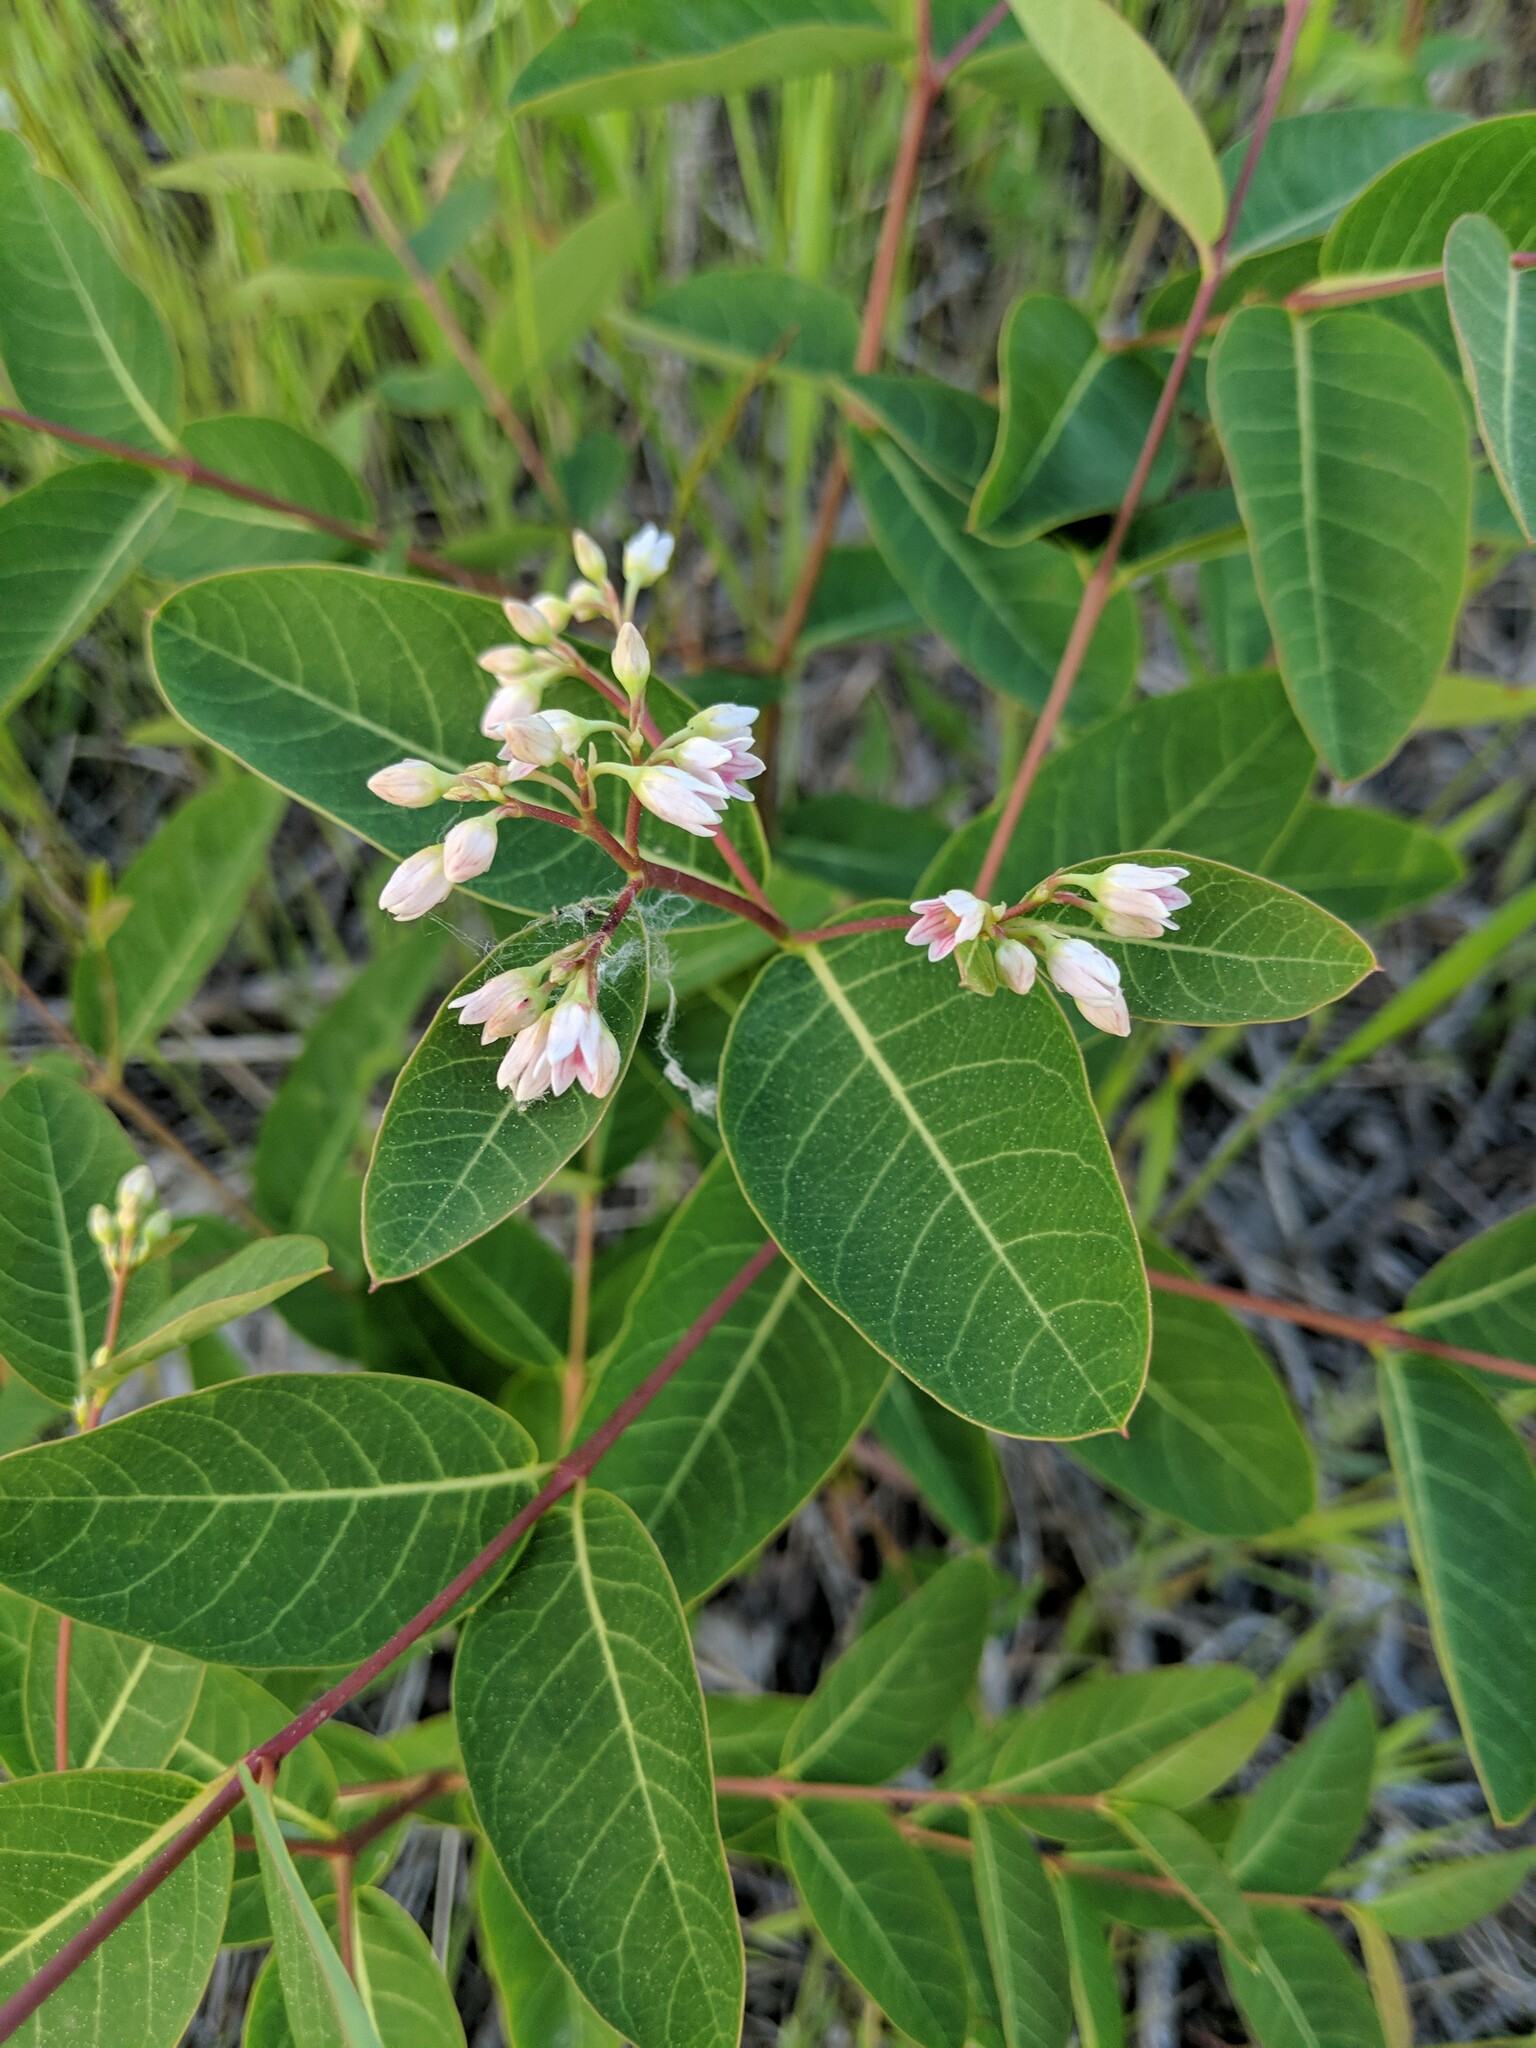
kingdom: Plantae
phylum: Tracheophyta
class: Magnoliopsida
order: Gentianales
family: Apocynaceae
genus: Apocynum
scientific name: Apocynum androsaemifolium
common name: Spreading dogbane
